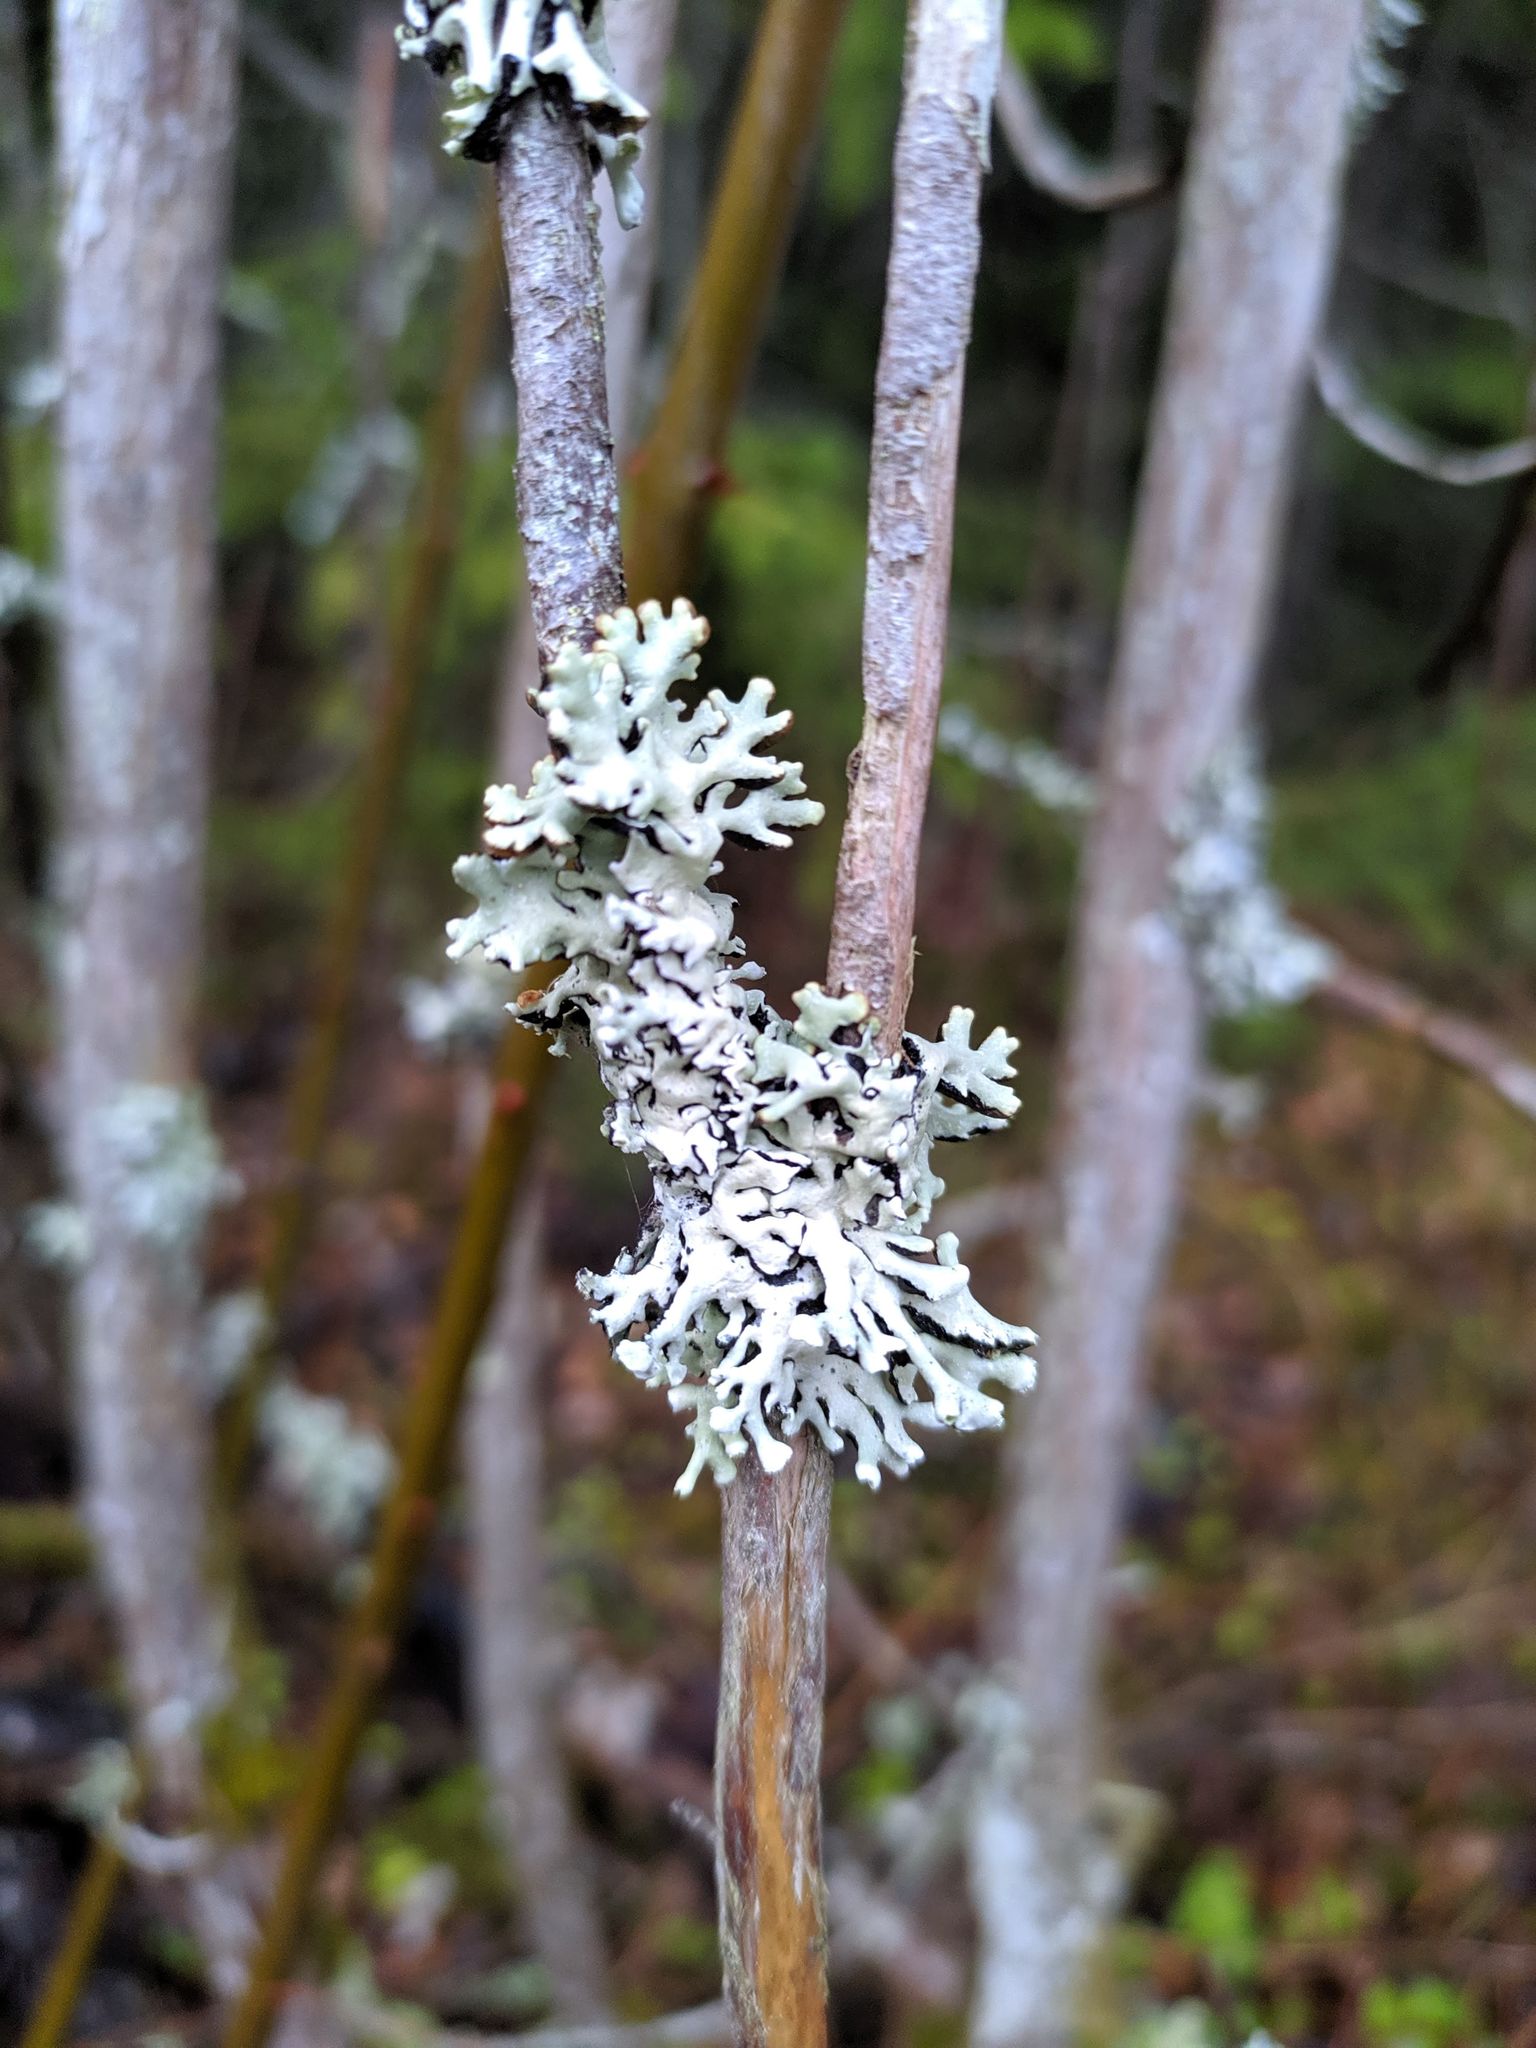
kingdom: Fungi
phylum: Ascomycota
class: Lecanoromycetes
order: Lecanorales
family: Parmeliaceae
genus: Hypogymnia
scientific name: Hypogymnia physodes
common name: Dark crottle
